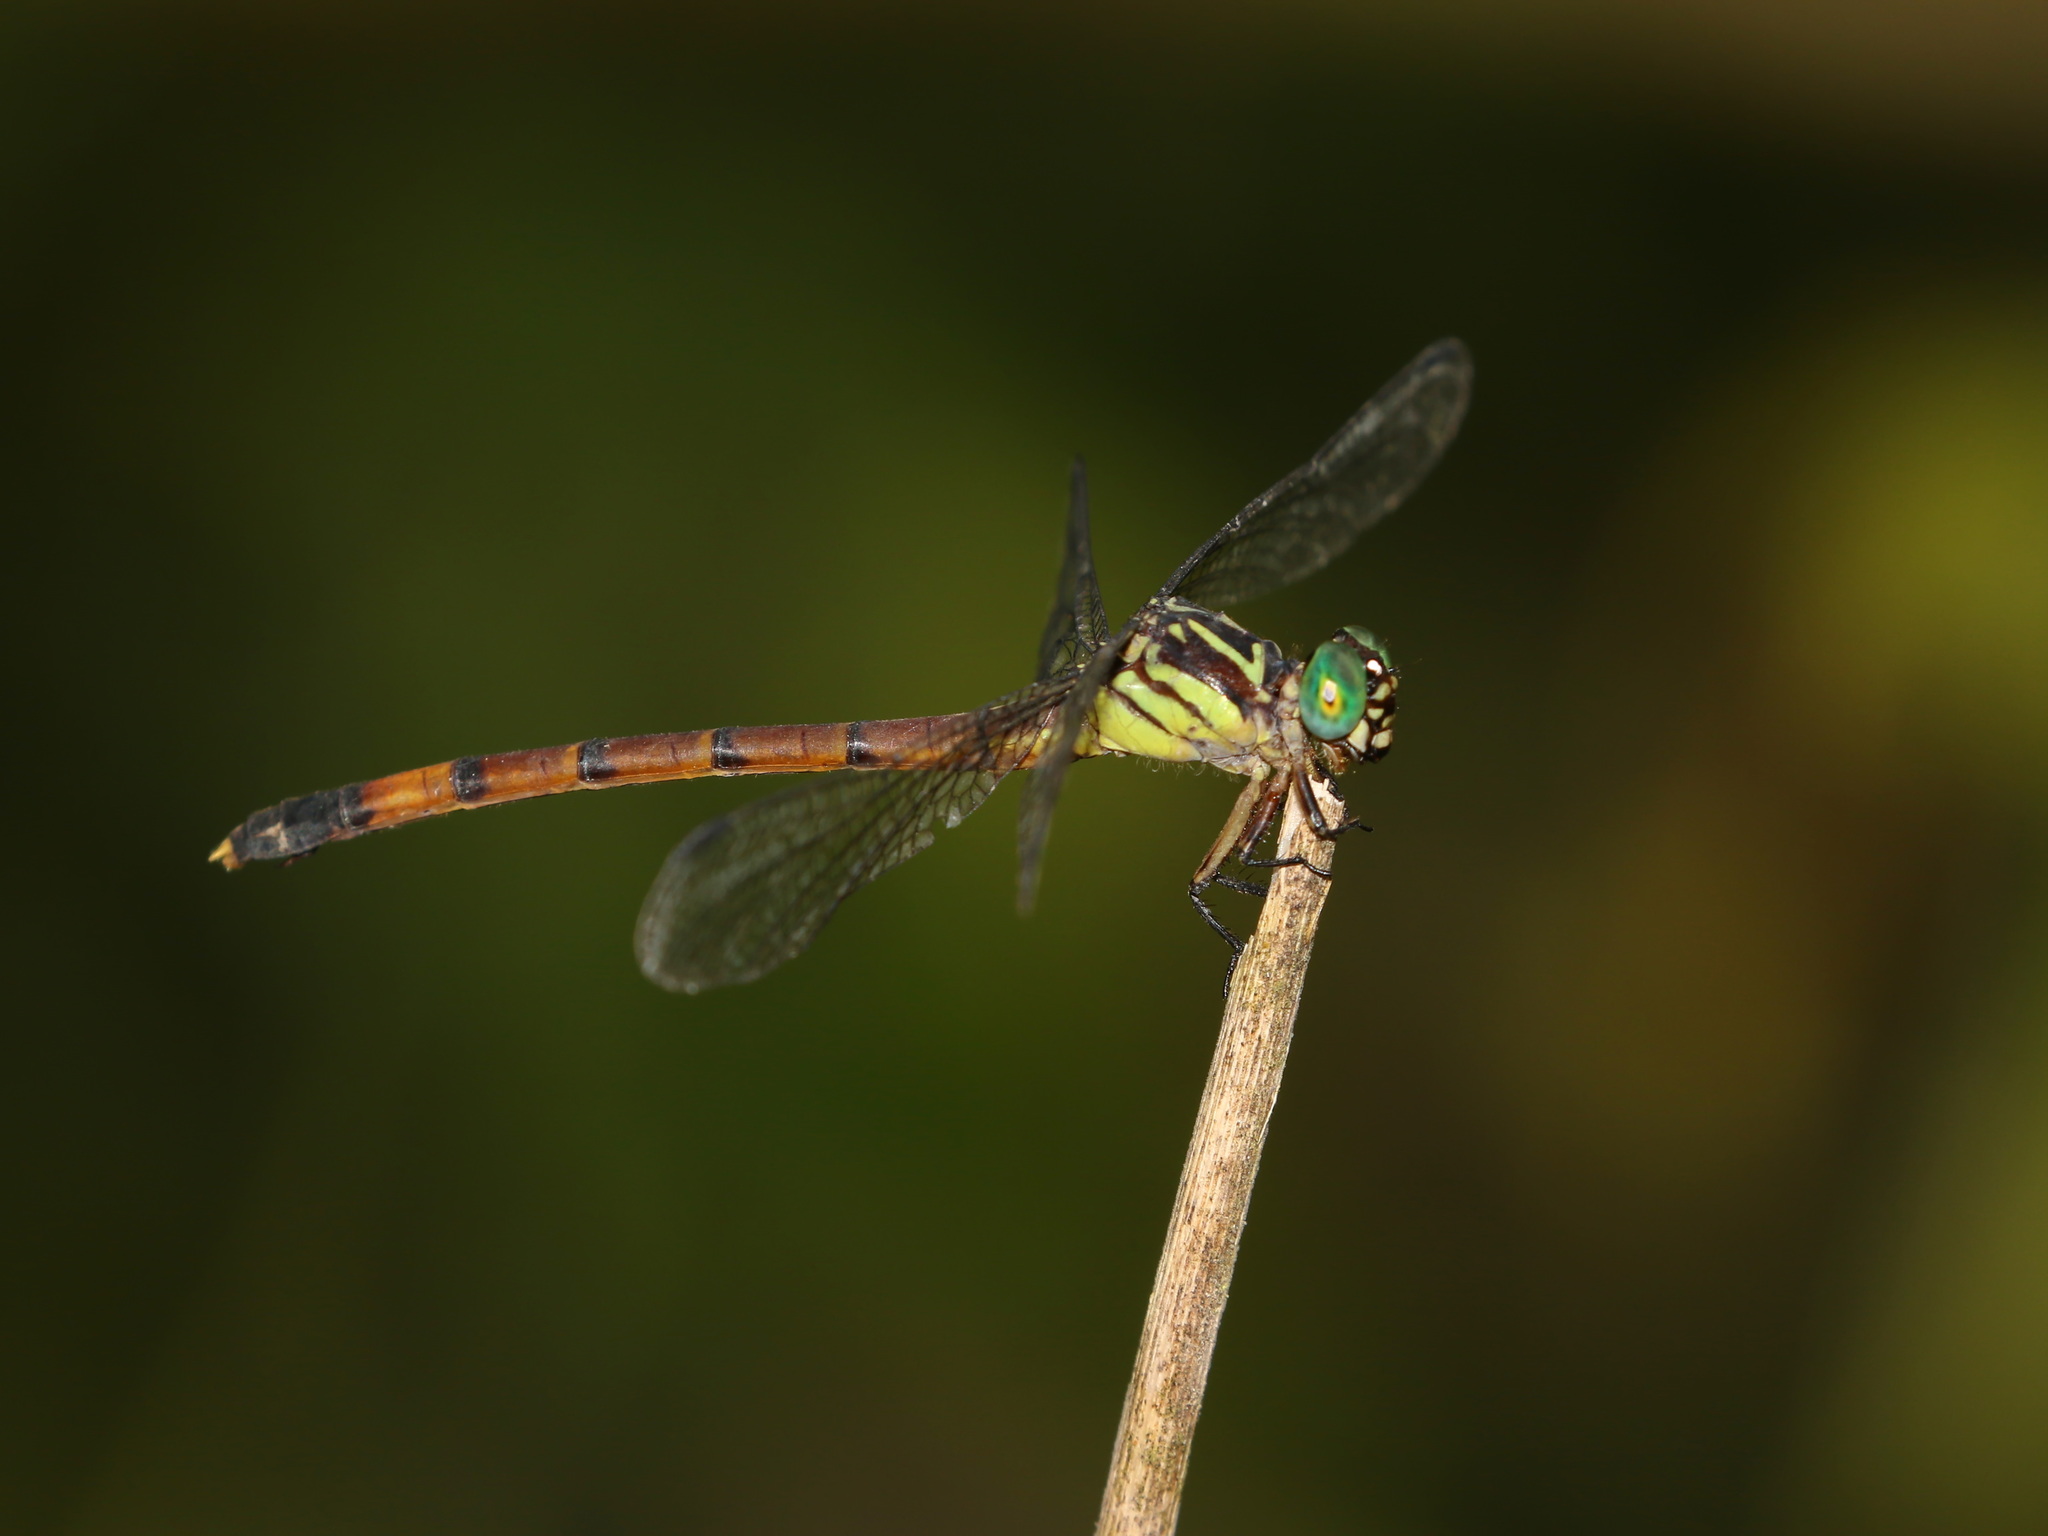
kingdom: Animalia
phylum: Arthropoda
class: Insecta
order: Odonata
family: Gomphidae
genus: Phaenandrogomphus
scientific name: Phaenandrogomphus asthenes
